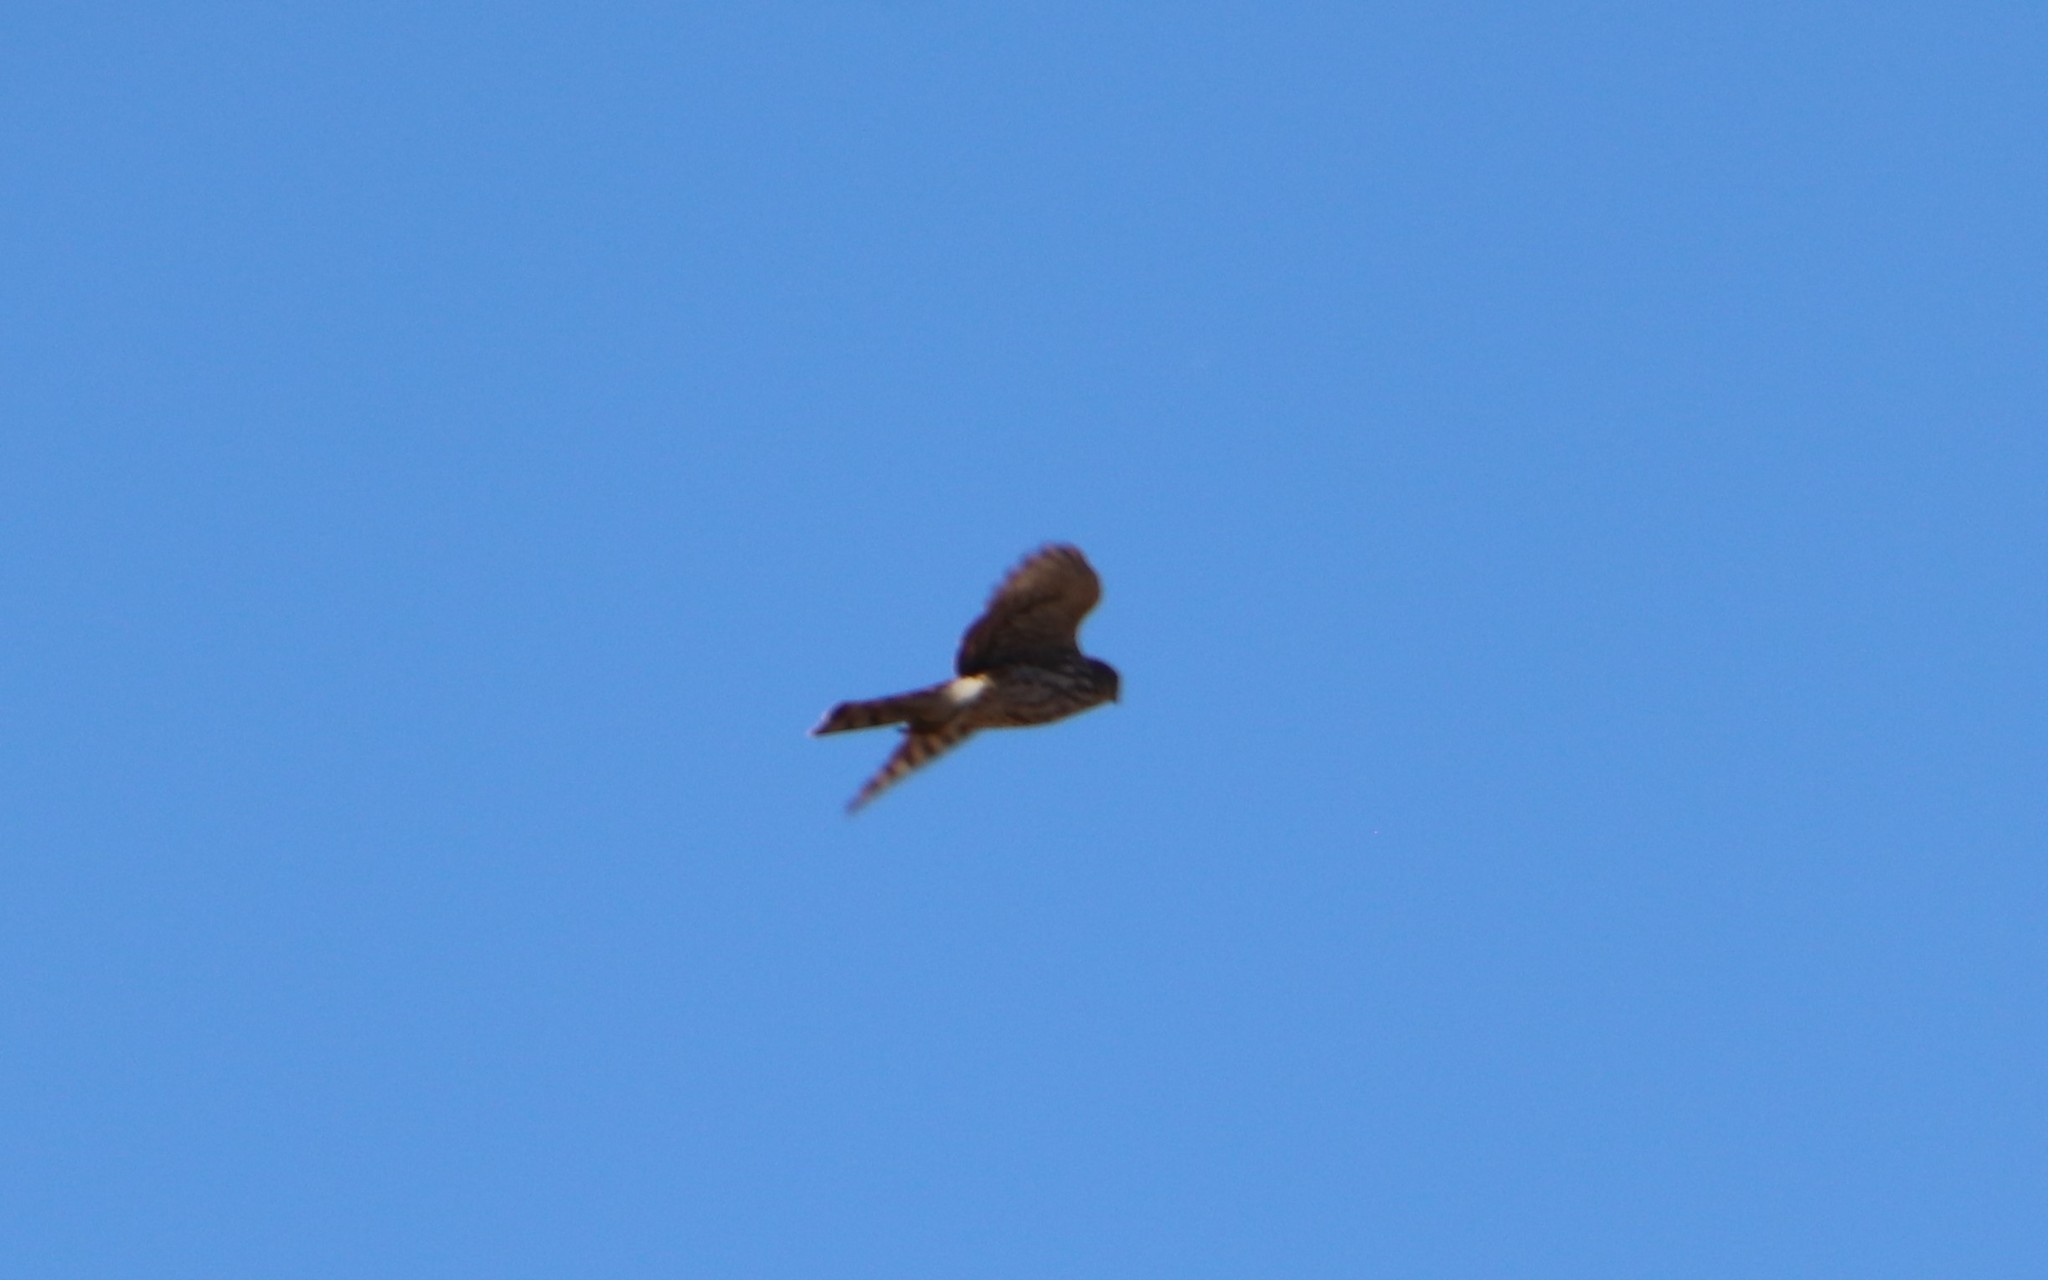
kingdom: Animalia
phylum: Chordata
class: Aves
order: Accipitriformes
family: Accipitridae
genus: Accipiter
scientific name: Accipiter striatus
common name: Sharp-shinned hawk
